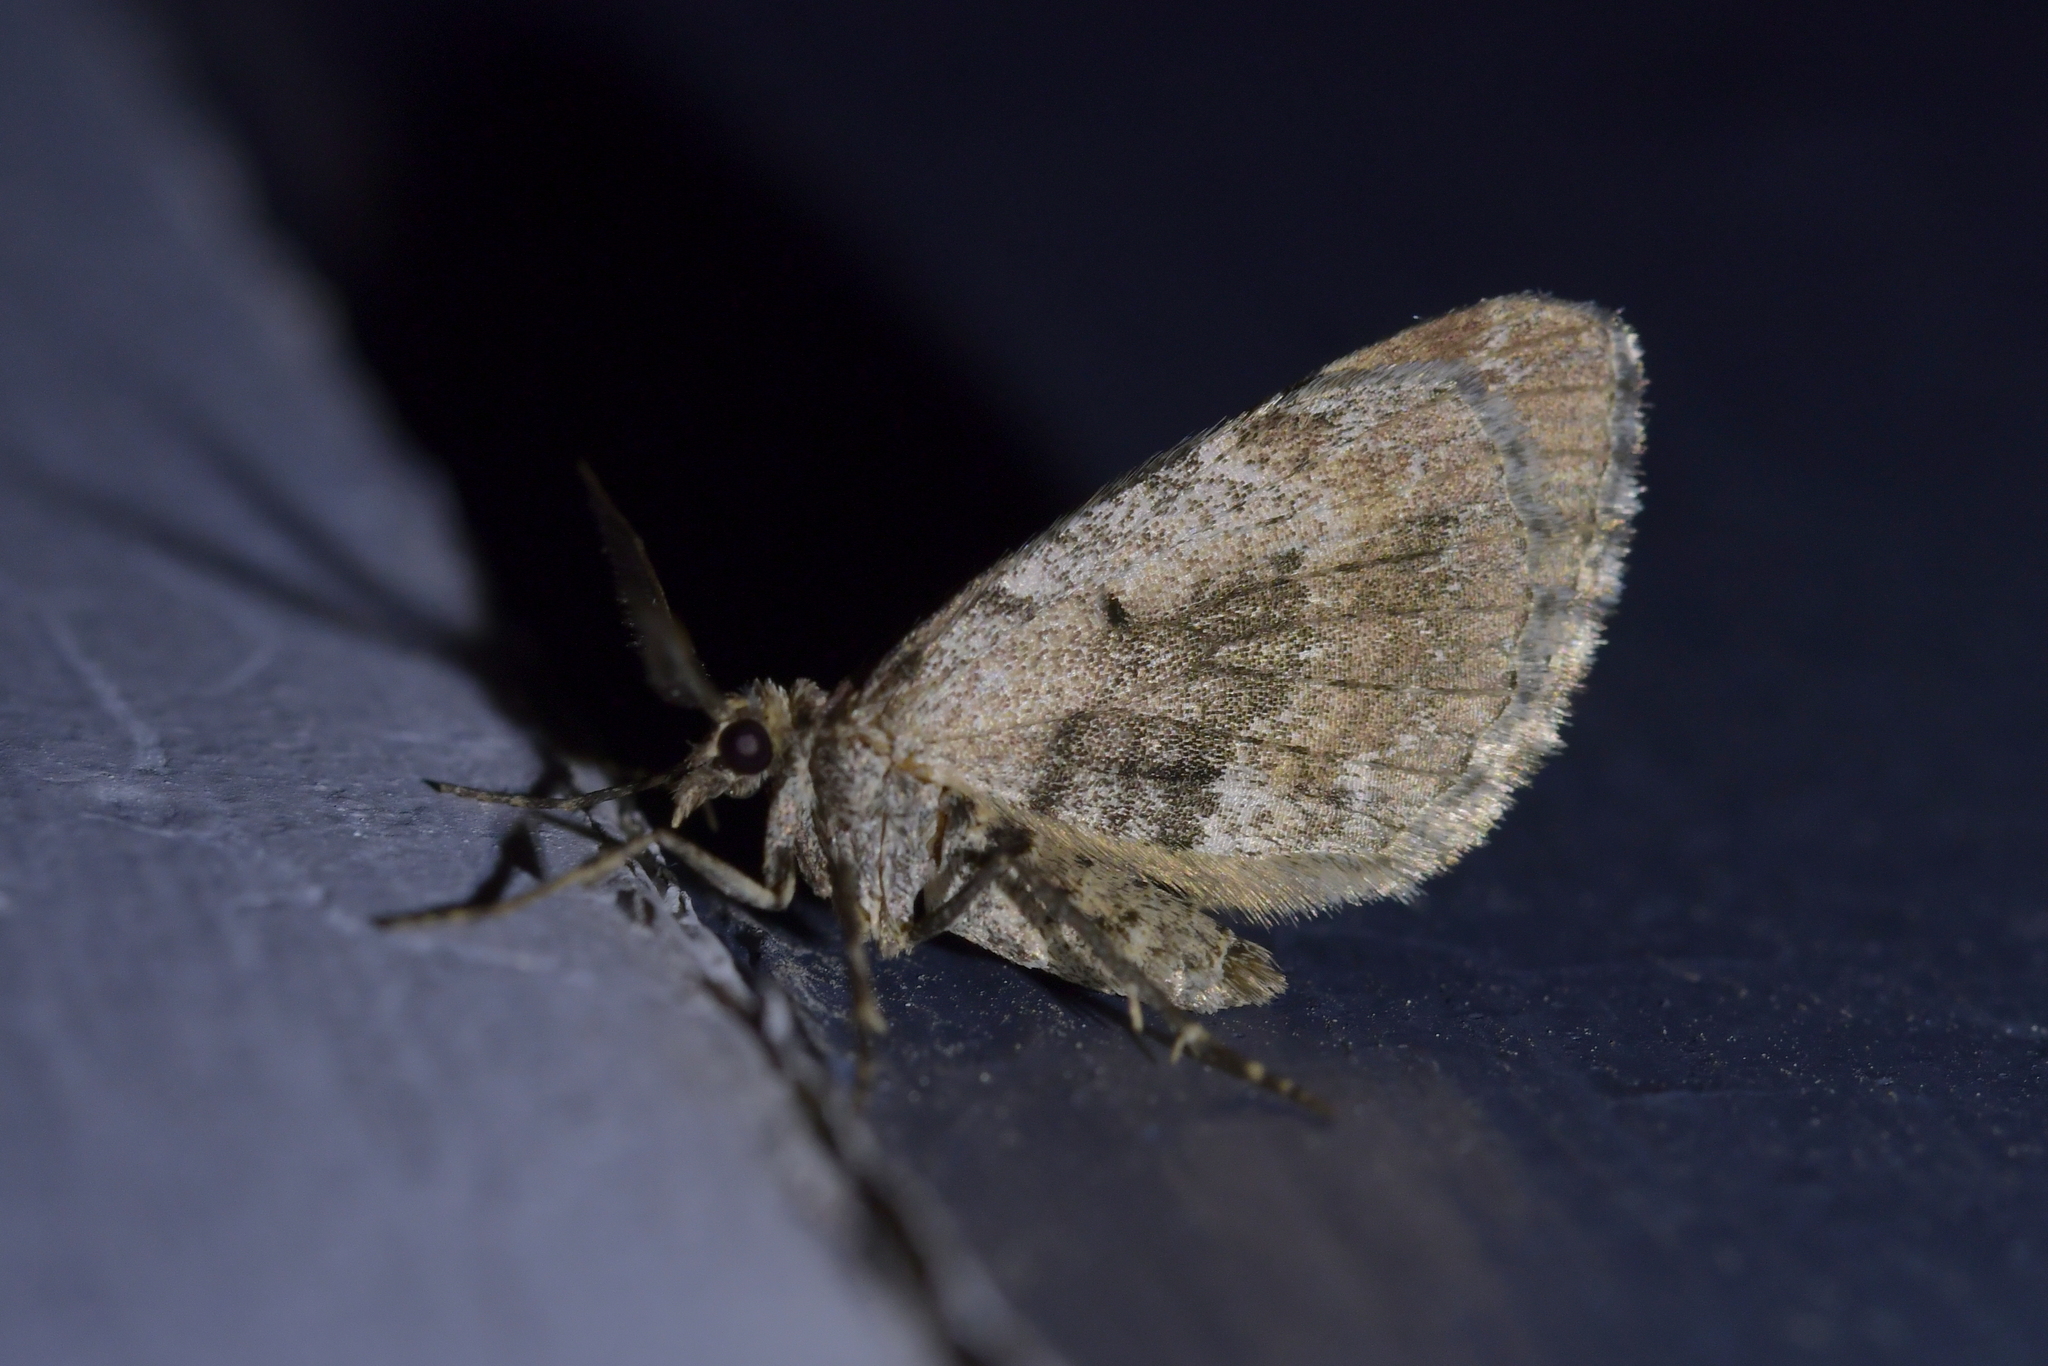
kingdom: Animalia
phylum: Arthropoda
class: Insecta
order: Lepidoptera
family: Geometridae
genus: Asaphodes
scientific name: Asaphodes aegrota
